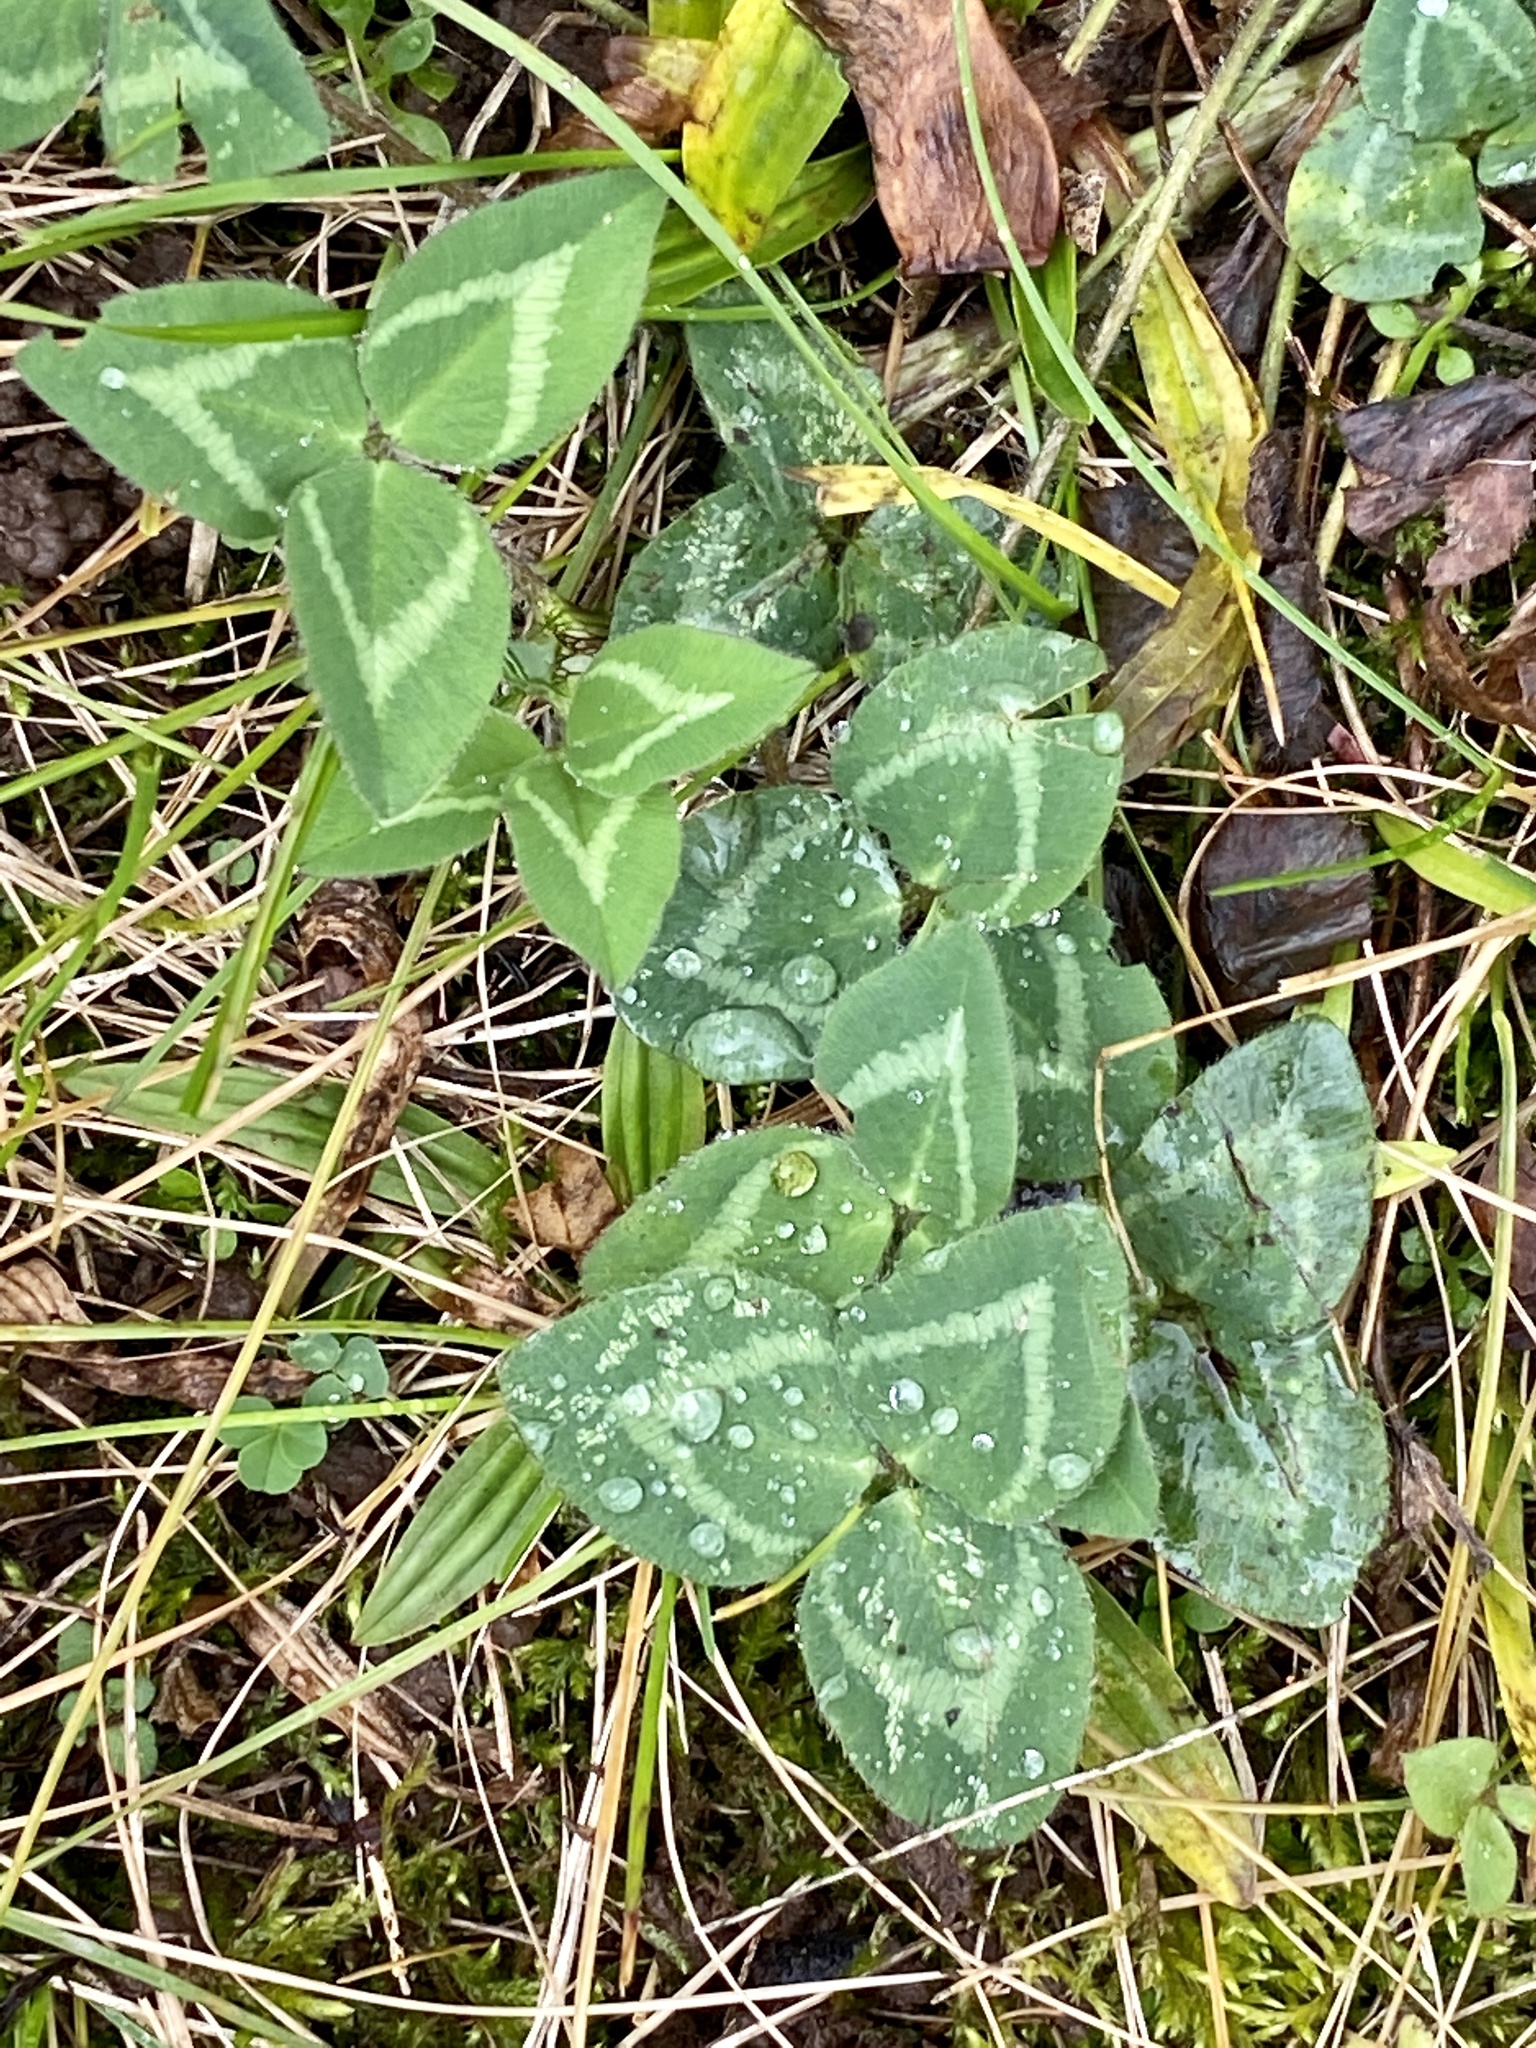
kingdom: Plantae
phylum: Tracheophyta
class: Magnoliopsida
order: Fabales
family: Fabaceae
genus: Trifolium
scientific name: Trifolium pratense
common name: Red clover
